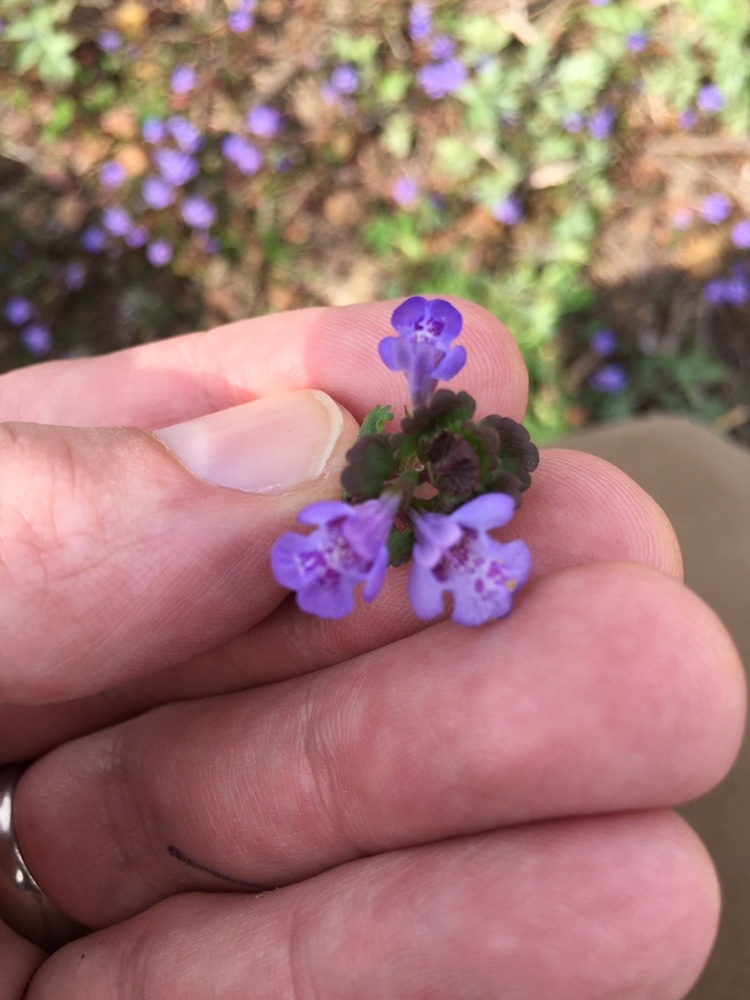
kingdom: Plantae
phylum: Tracheophyta
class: Magnoliopsida
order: Lamiales
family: Lamiaceae
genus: Glechoma
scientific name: Glechoma hederacea
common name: Ground ivy
